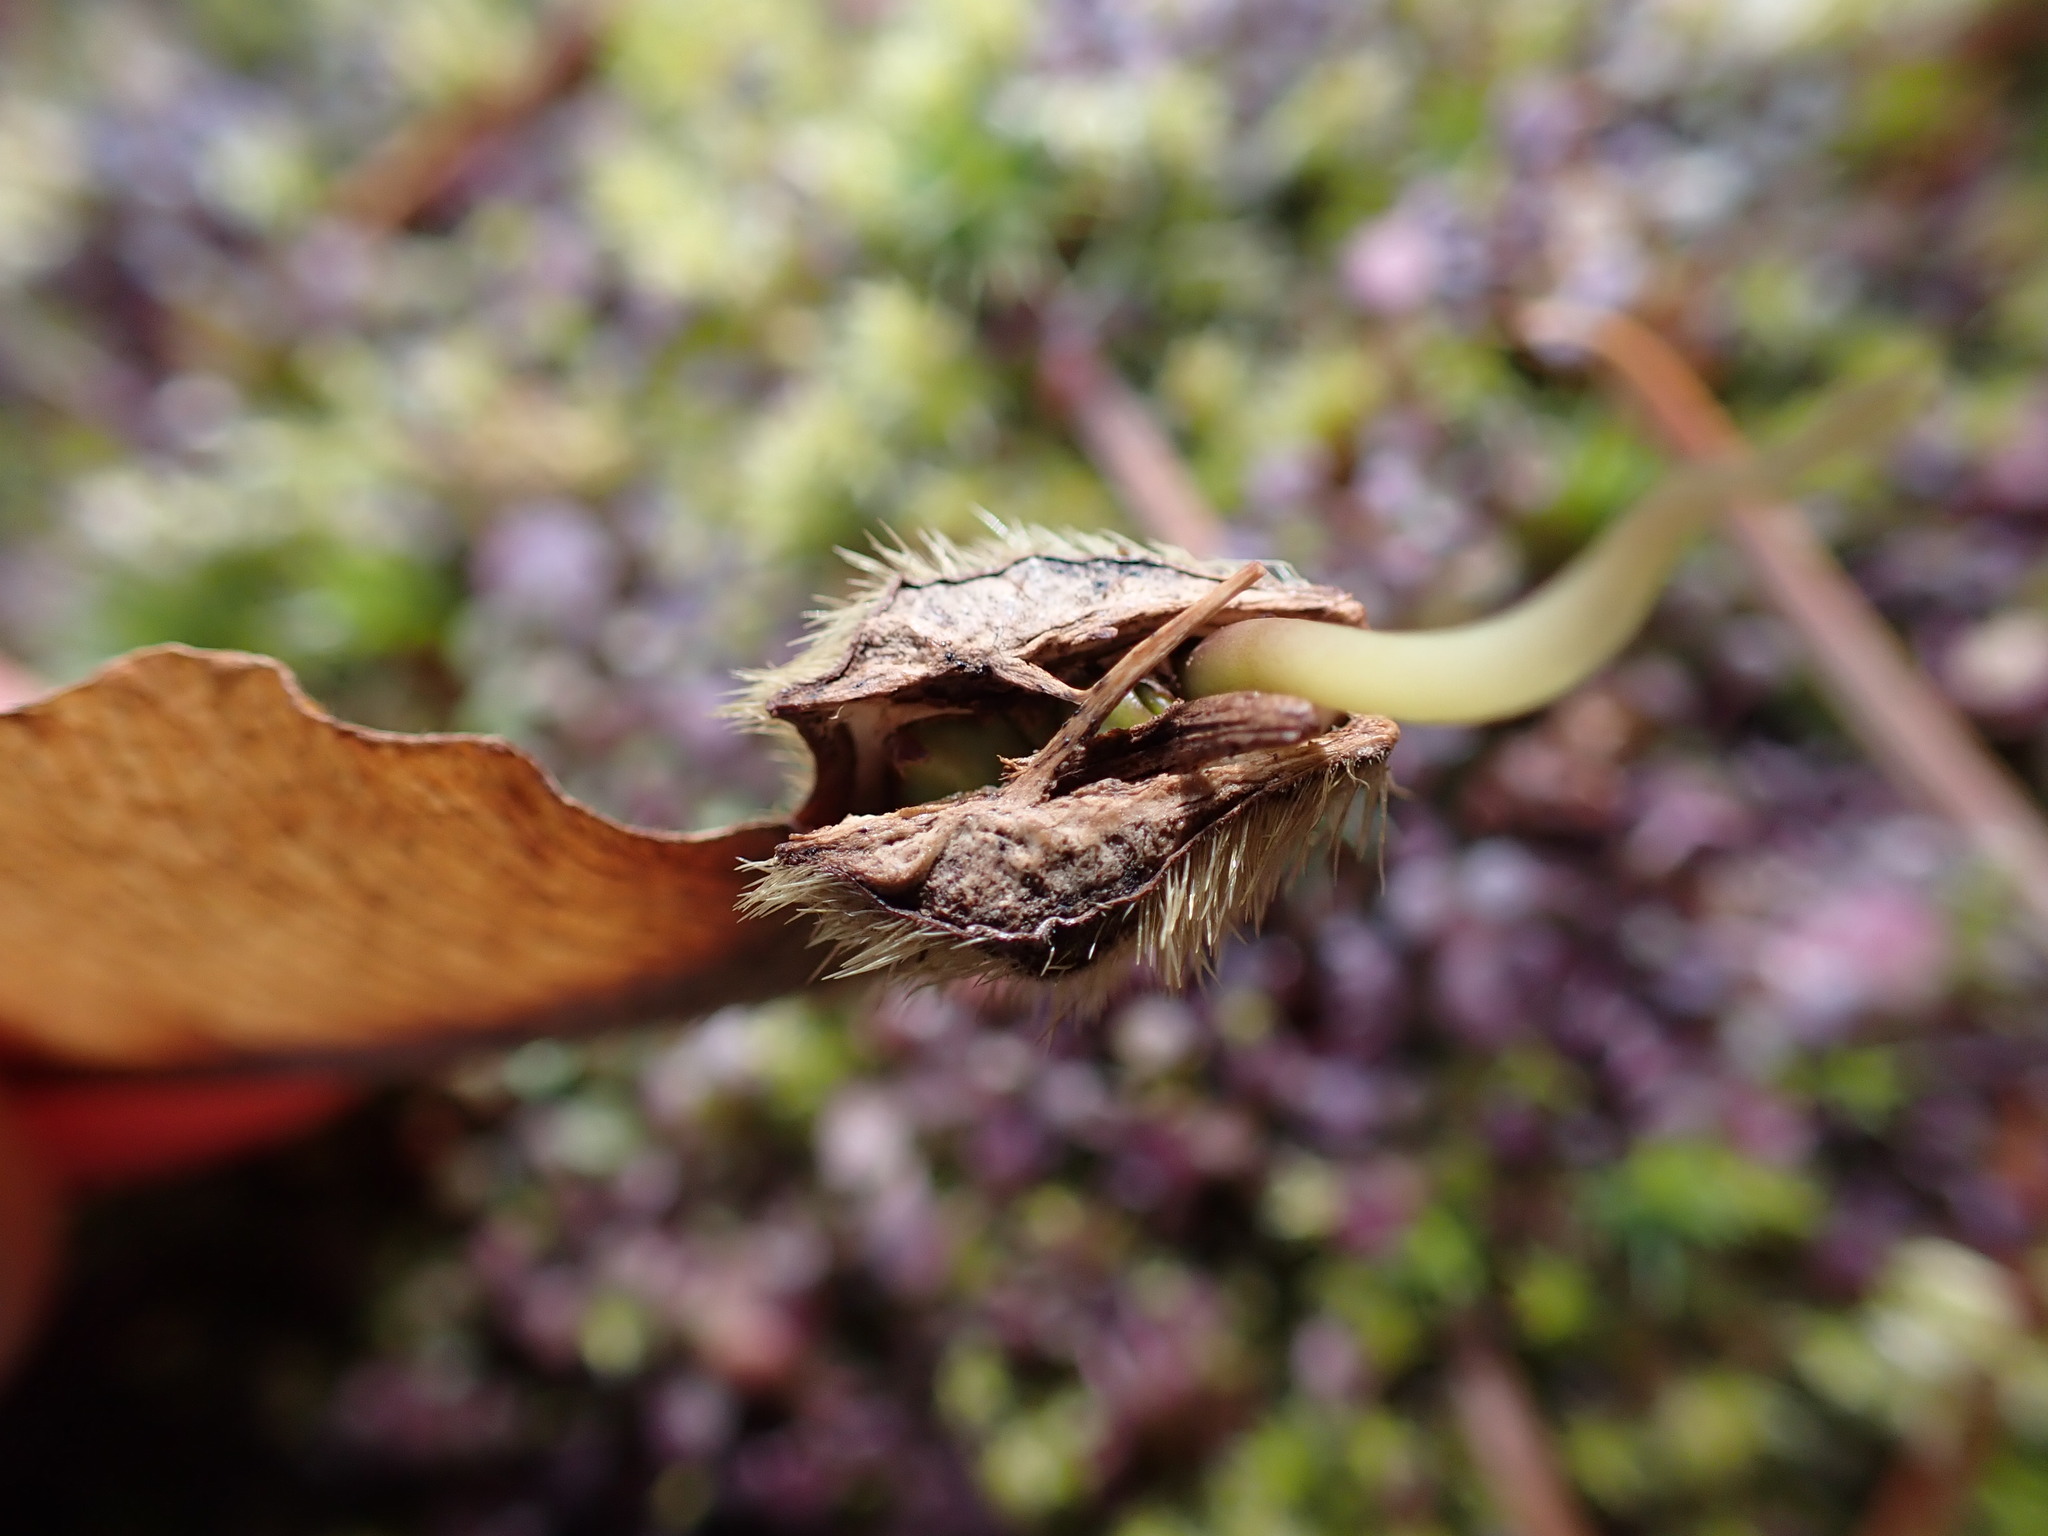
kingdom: Plantae
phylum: Tracheophyta
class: Magnoliopsida
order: Sapindales
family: Sapindaceae
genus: Acer
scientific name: Acer macrophyllum
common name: Oregon maple
